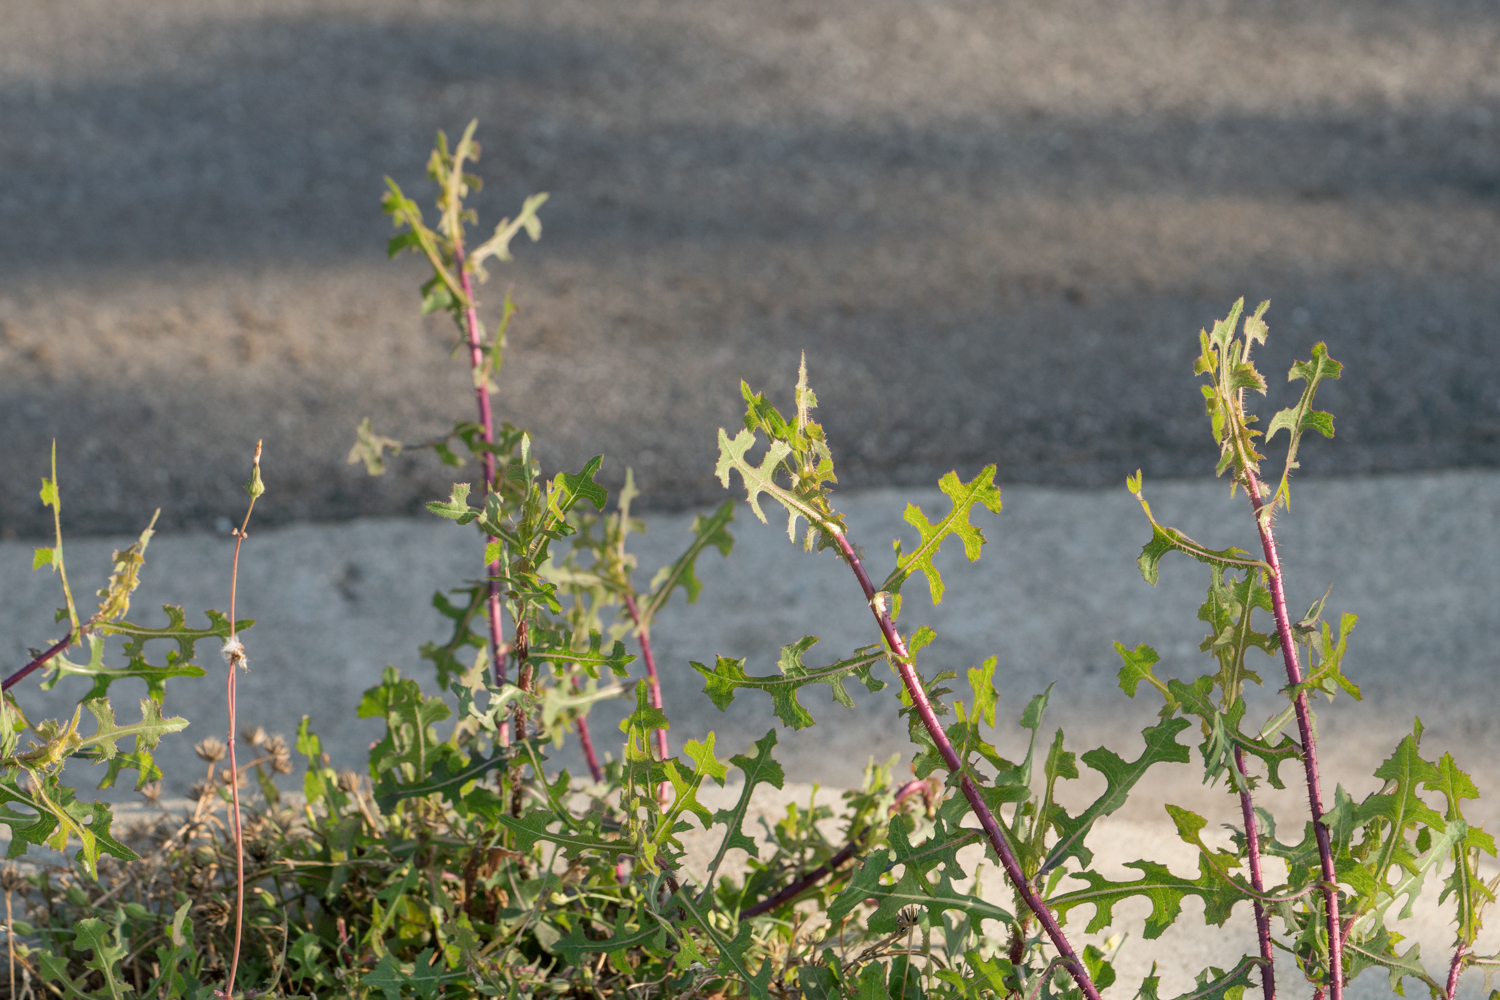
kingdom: Plantae
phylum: Tracheophyta
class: Magnoliopsida
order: Asterales
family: Asteraceae
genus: Lactuca
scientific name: Lactuca serriola
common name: Prickly lettuce
